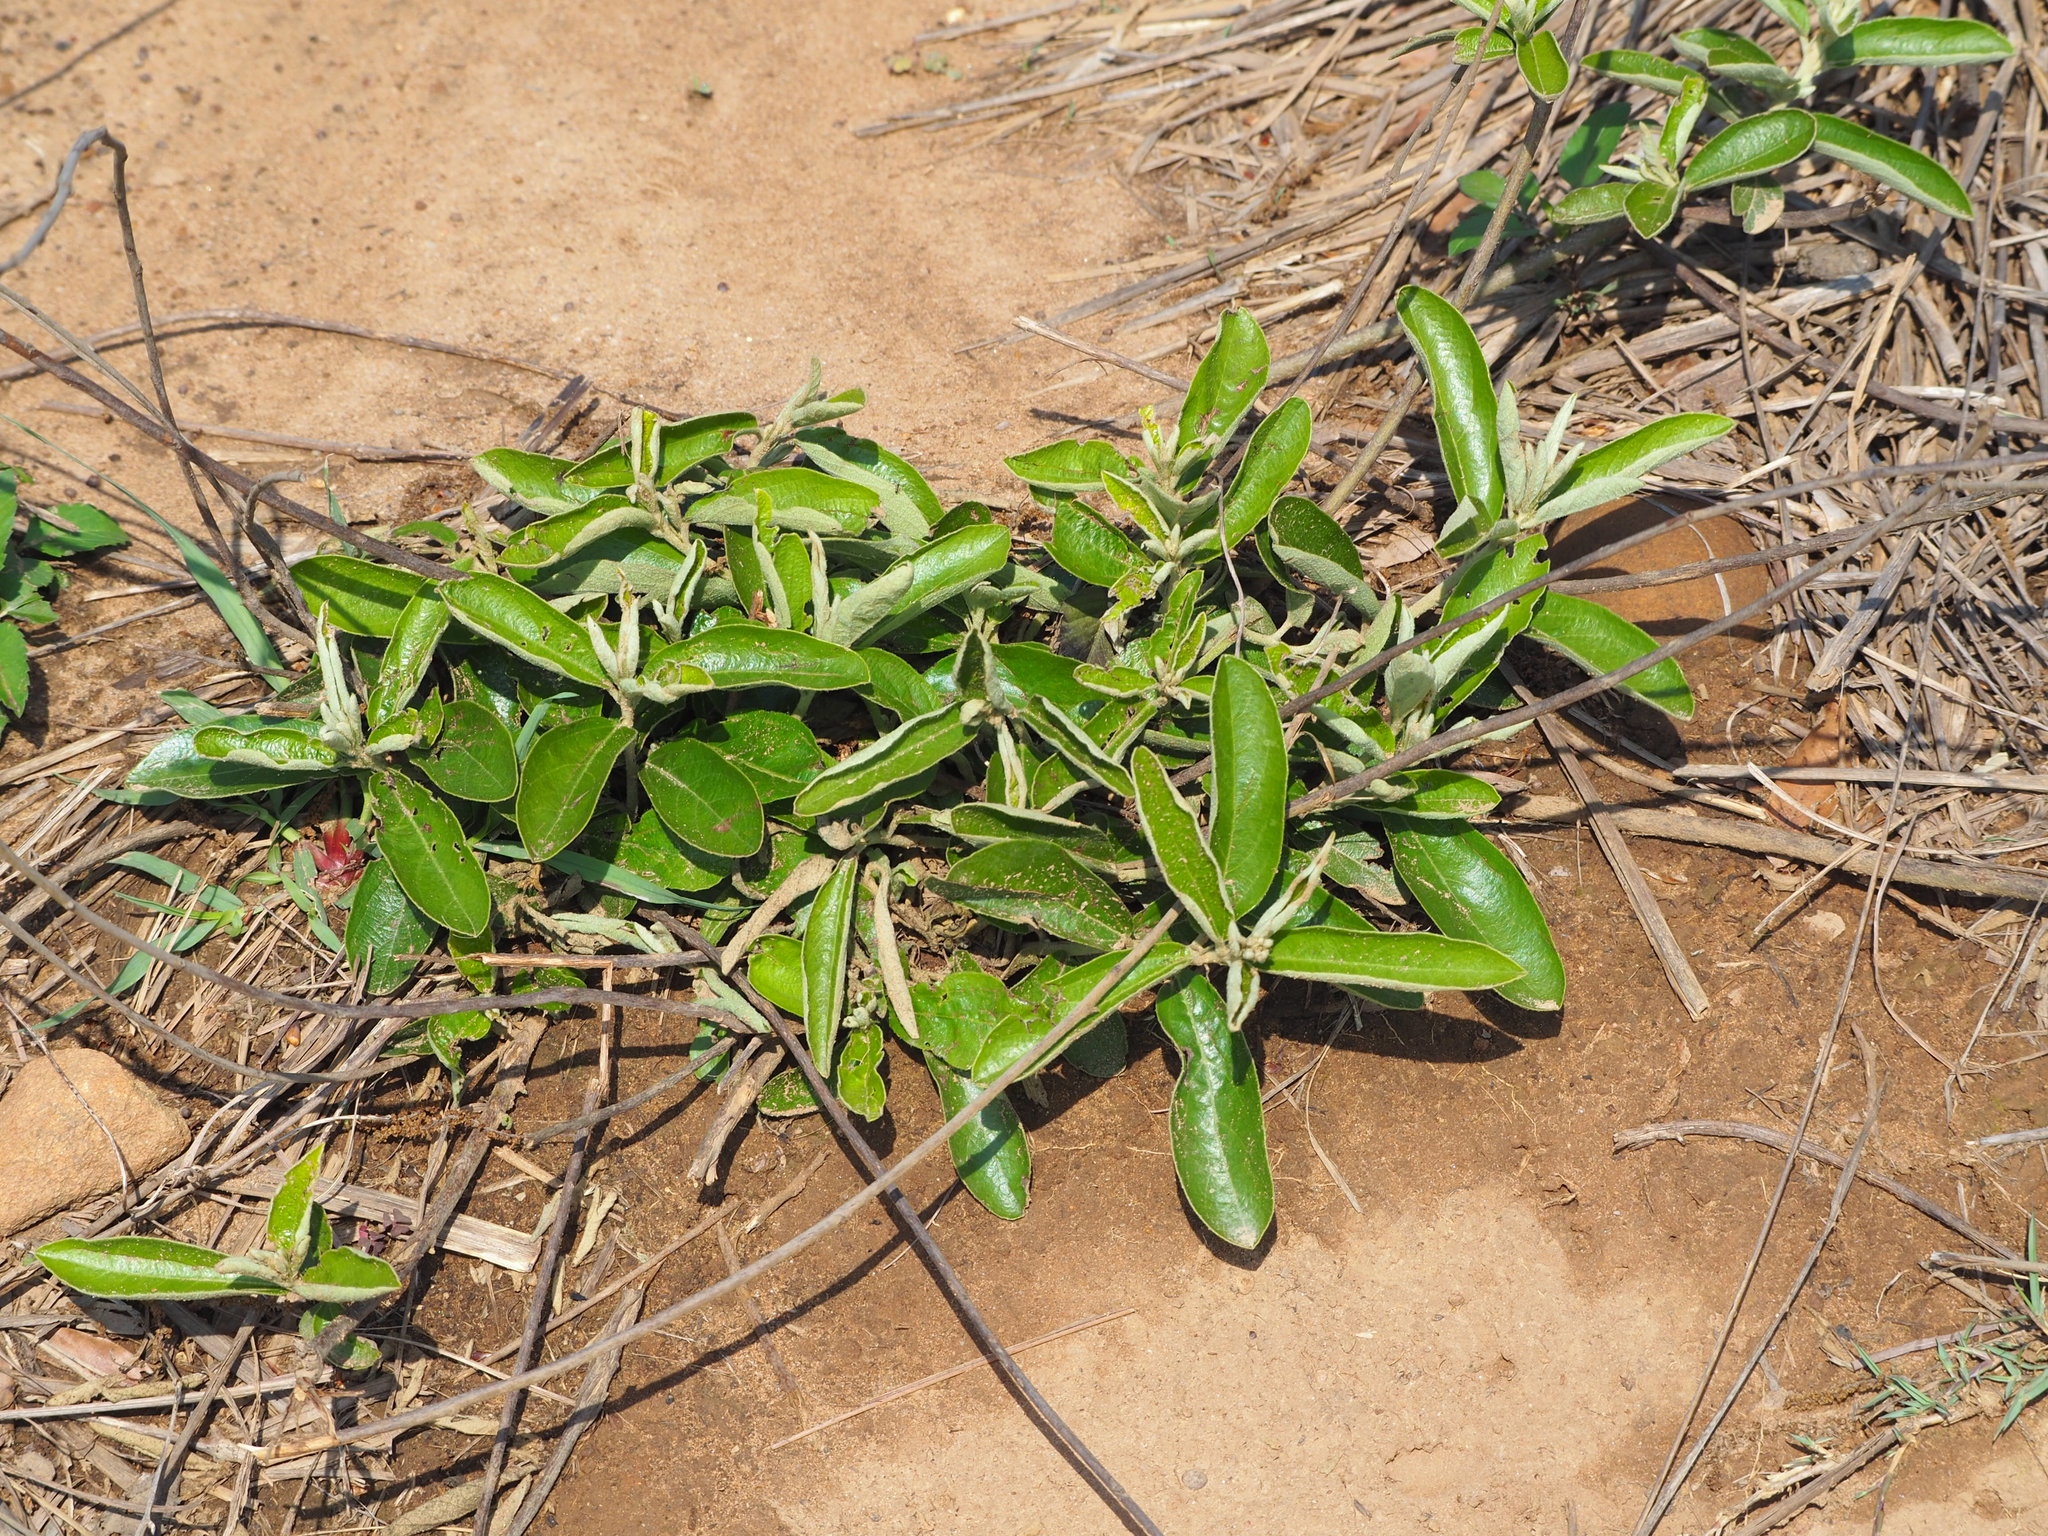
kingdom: Plantae
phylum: Tracheophyta
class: Magnoliopsida
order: Malvales
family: Malvaceae
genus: Helicteres
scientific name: Helicteres angustifolia
